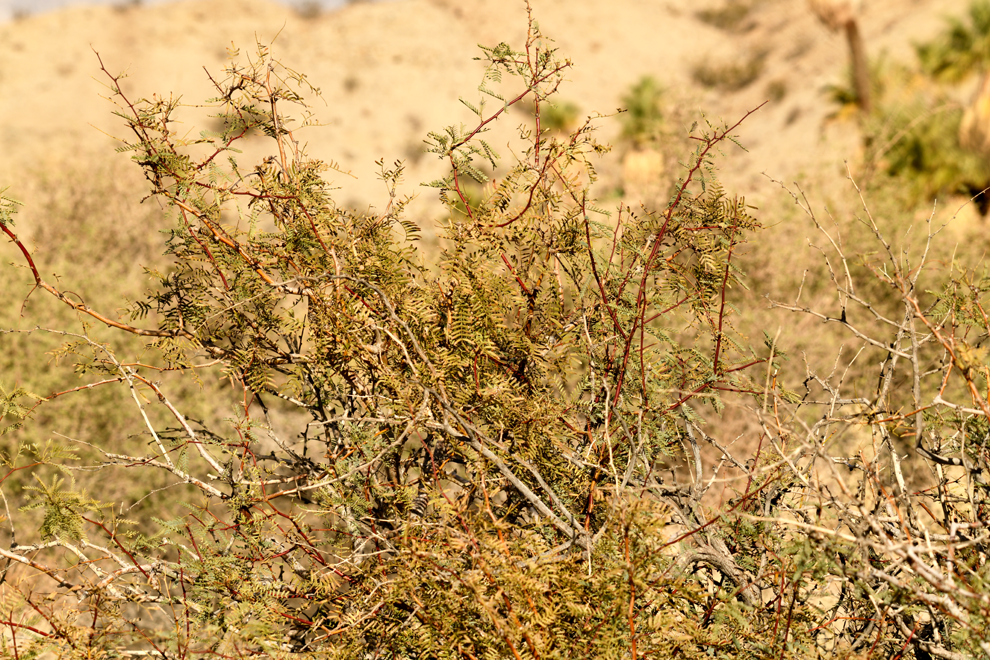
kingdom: Plantae
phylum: Tracheophyta
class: Magnoliopsida
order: Fabales
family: Fabaceae
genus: Prosopis
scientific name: Prosopis pubescens
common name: Screw-bean
